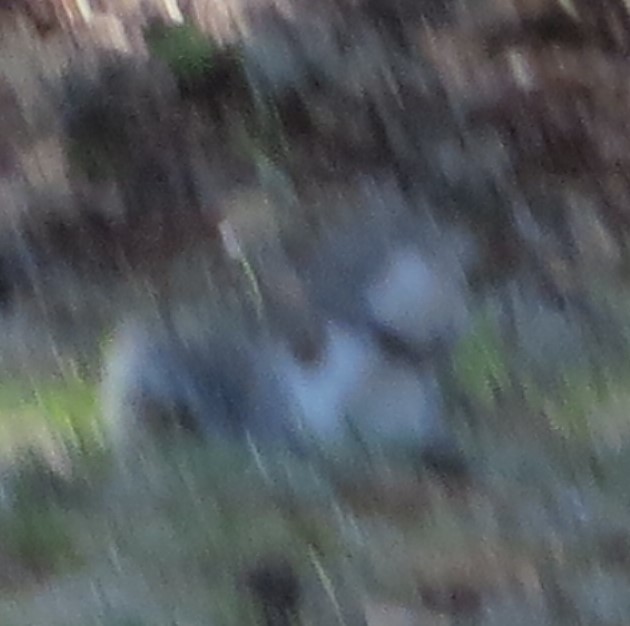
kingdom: Animalia
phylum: Chordata
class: Mammalia
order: Rodentia
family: Sciuridae
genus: Sciurus
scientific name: Sciurus carolinensis
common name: Eastern gray squirrel
